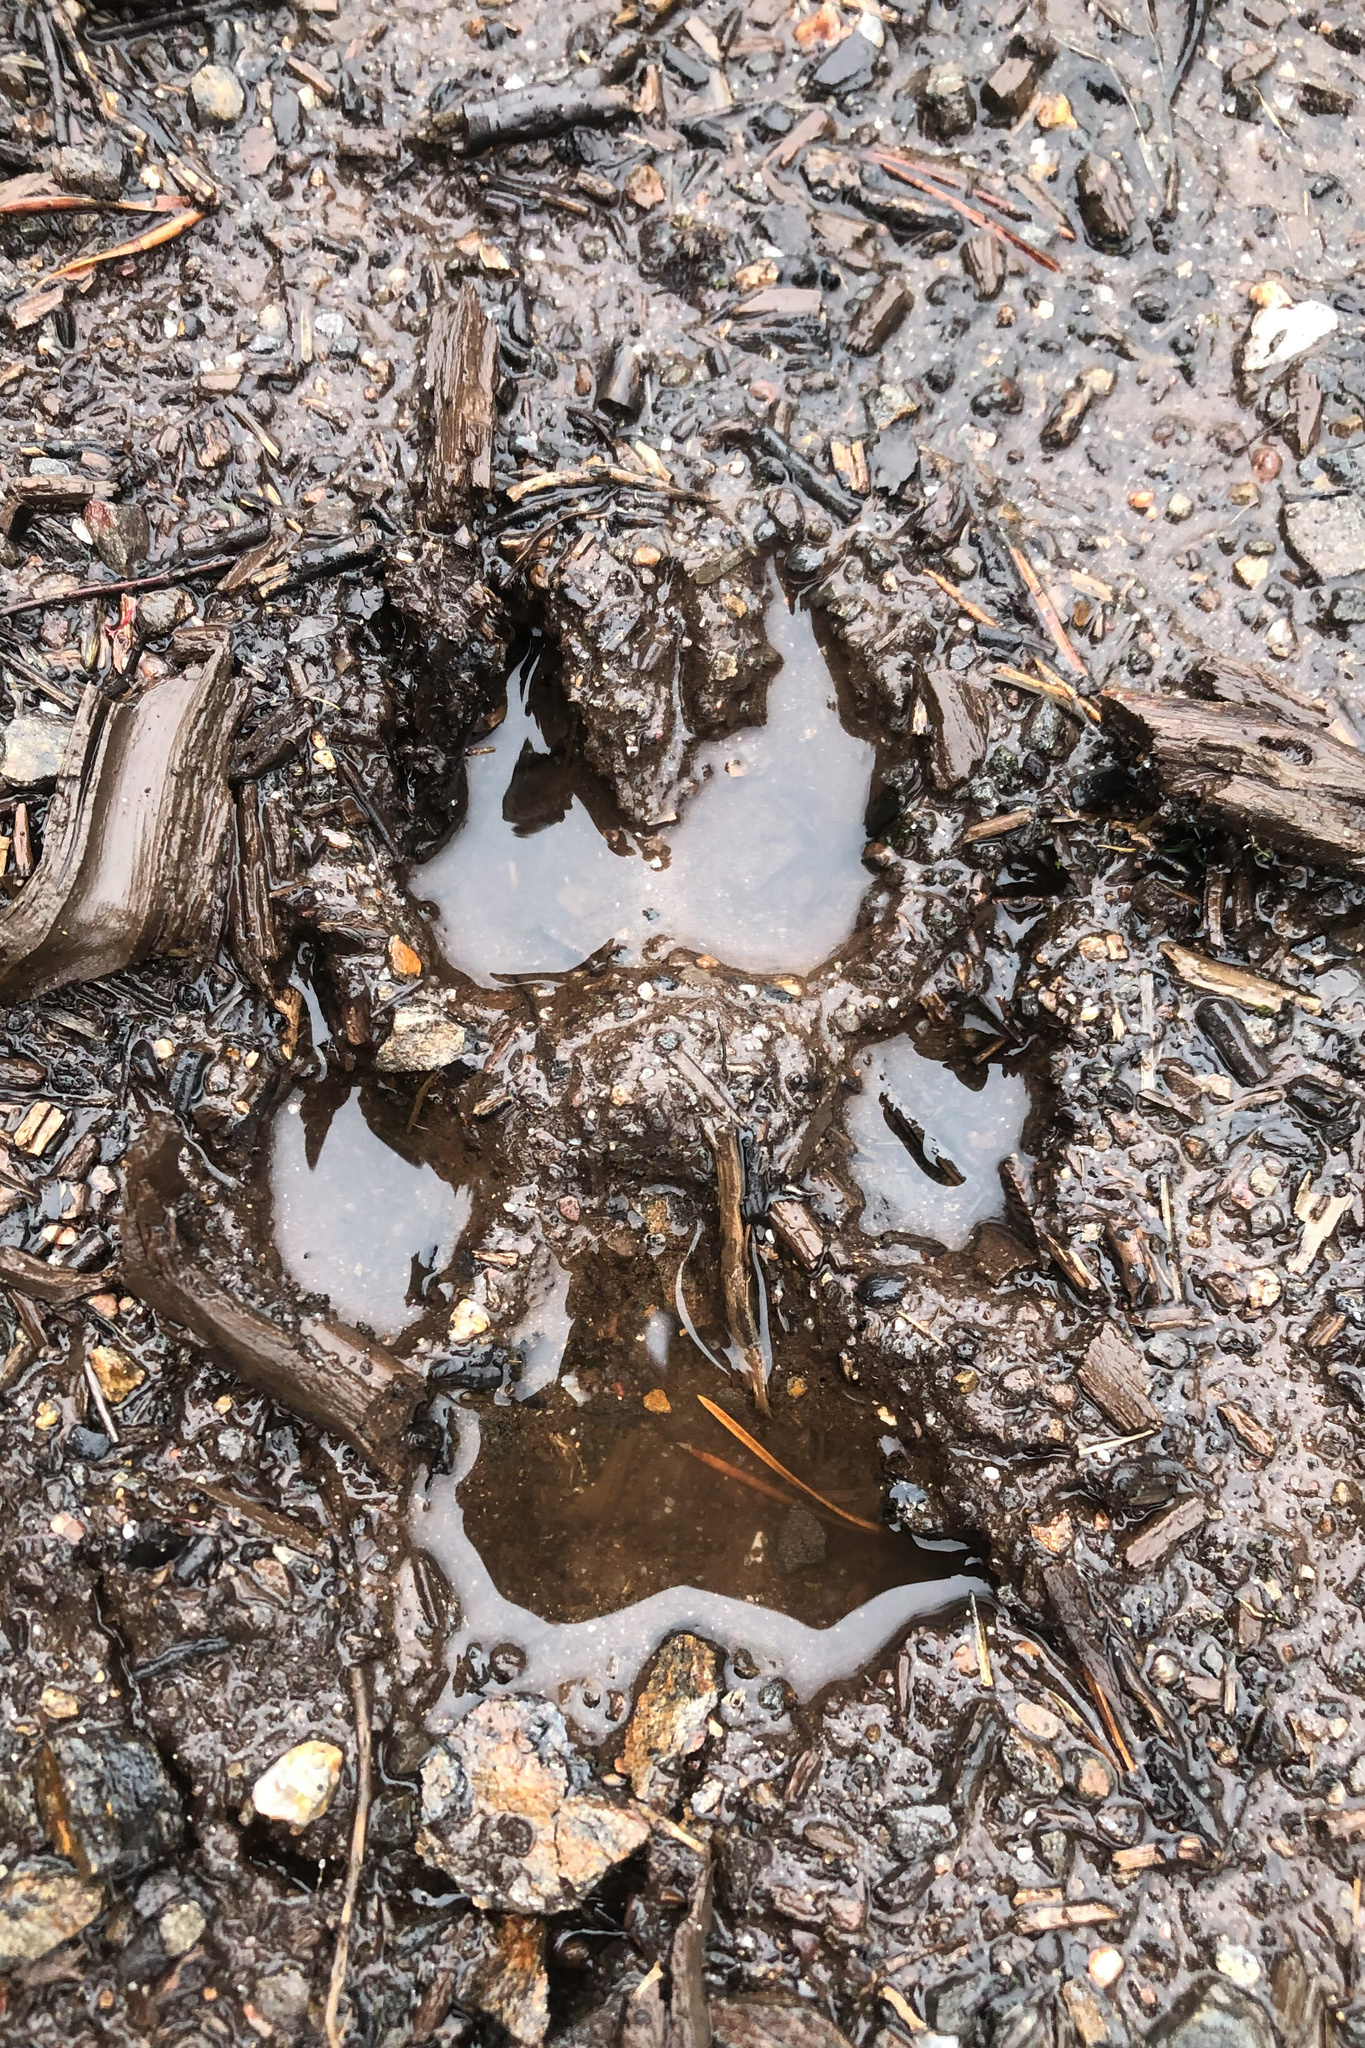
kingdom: Animalia
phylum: Chordata
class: Mammalia
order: Carnivora
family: Canidae
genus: Canis
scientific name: Canis lupus
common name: Gray wolf
